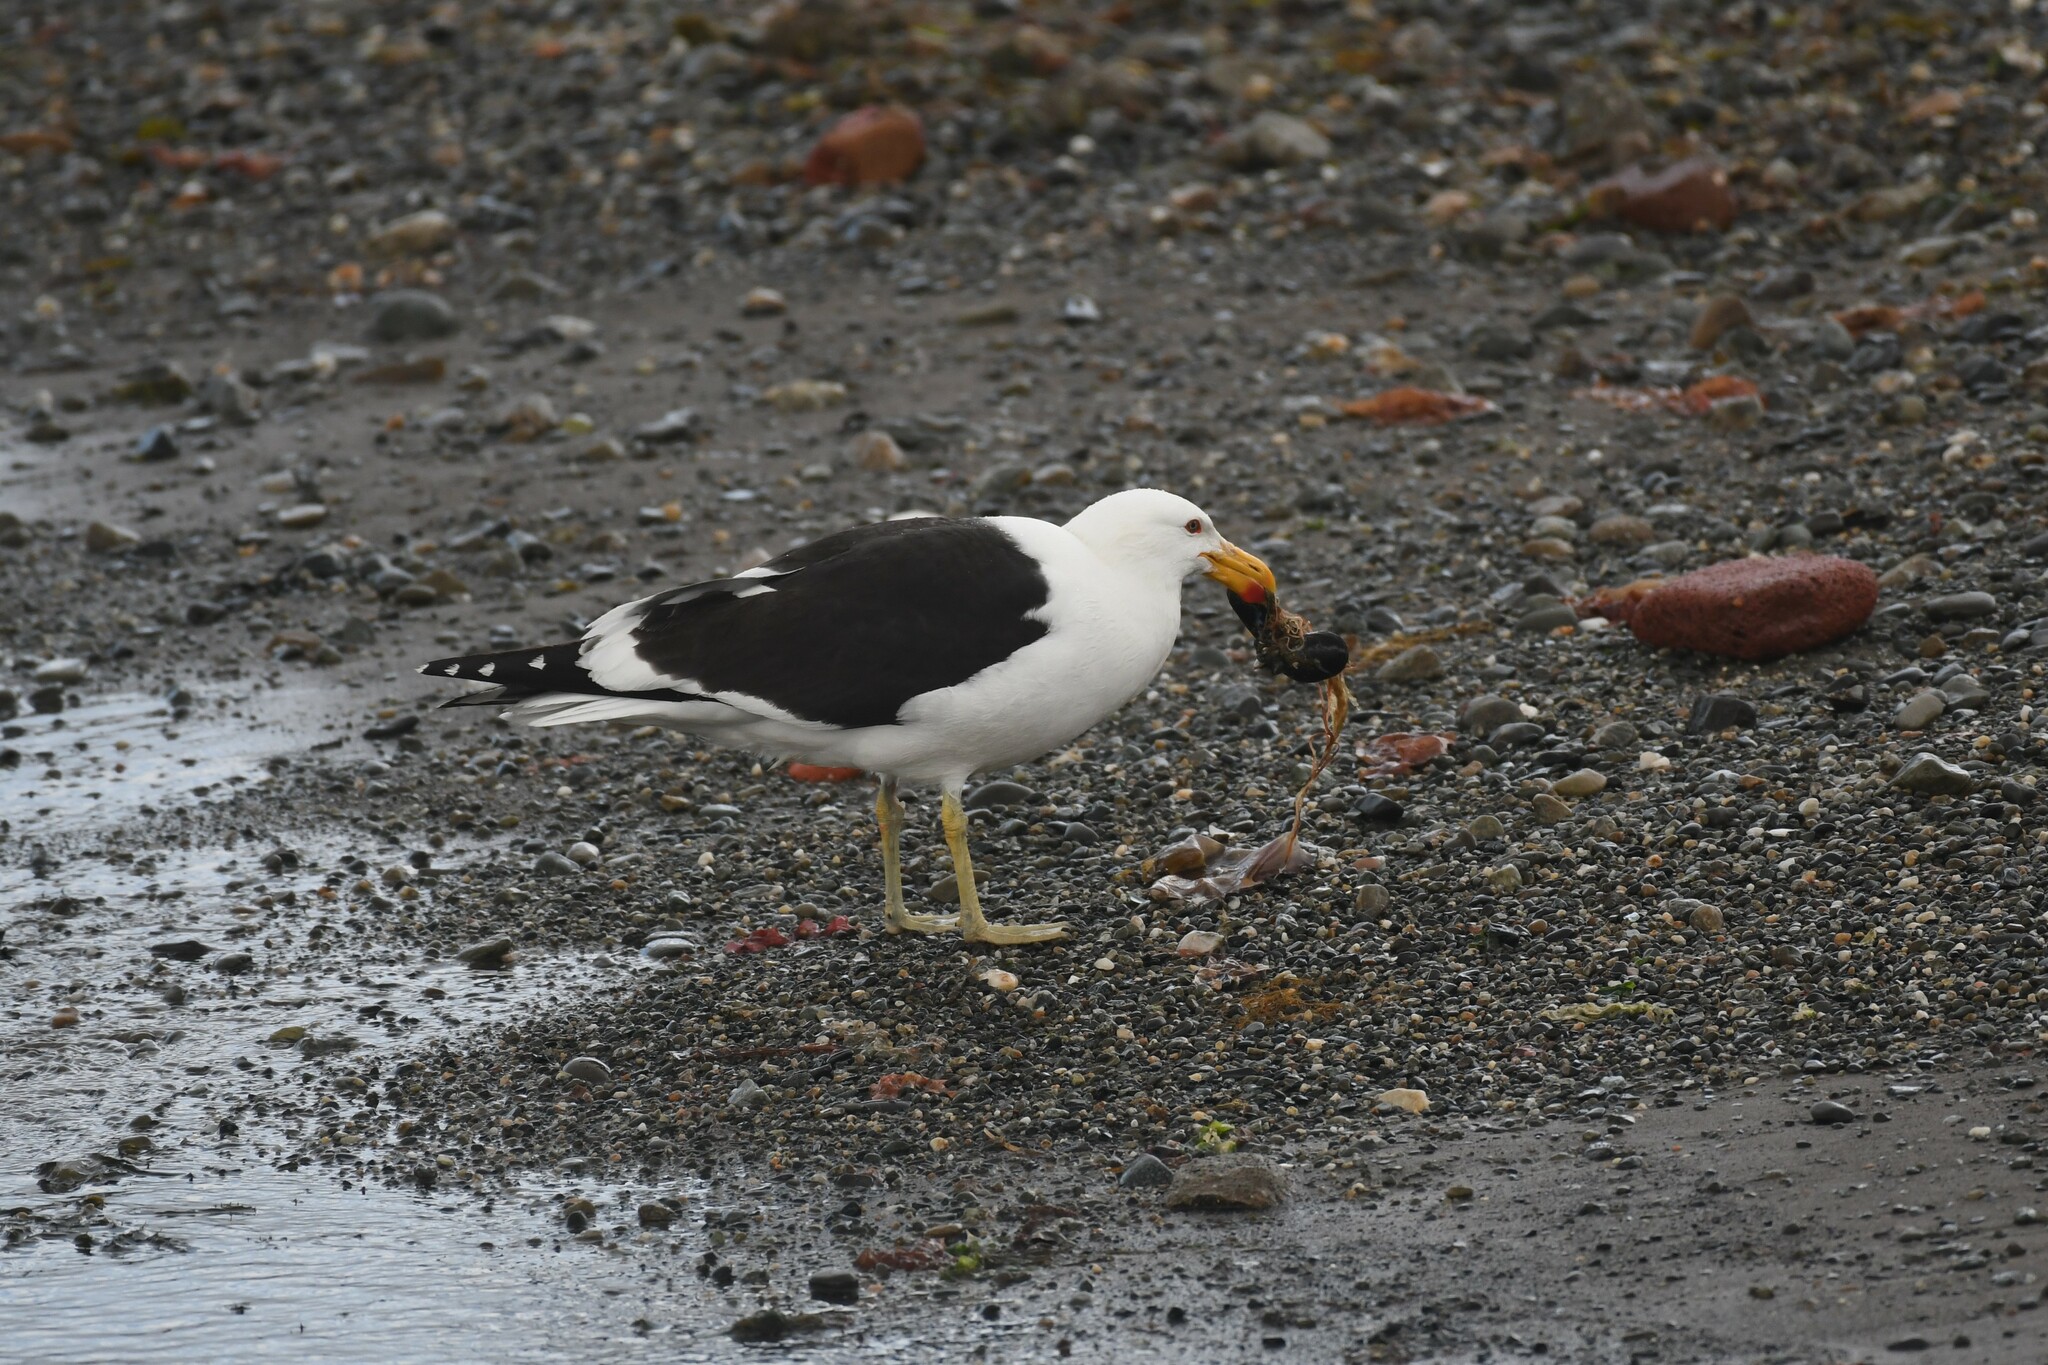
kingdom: Animalia
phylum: Chordata
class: Aves
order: Charadriiformes
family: Laridae
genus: Larus
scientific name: Larus dominicanus
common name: Kelp gull
